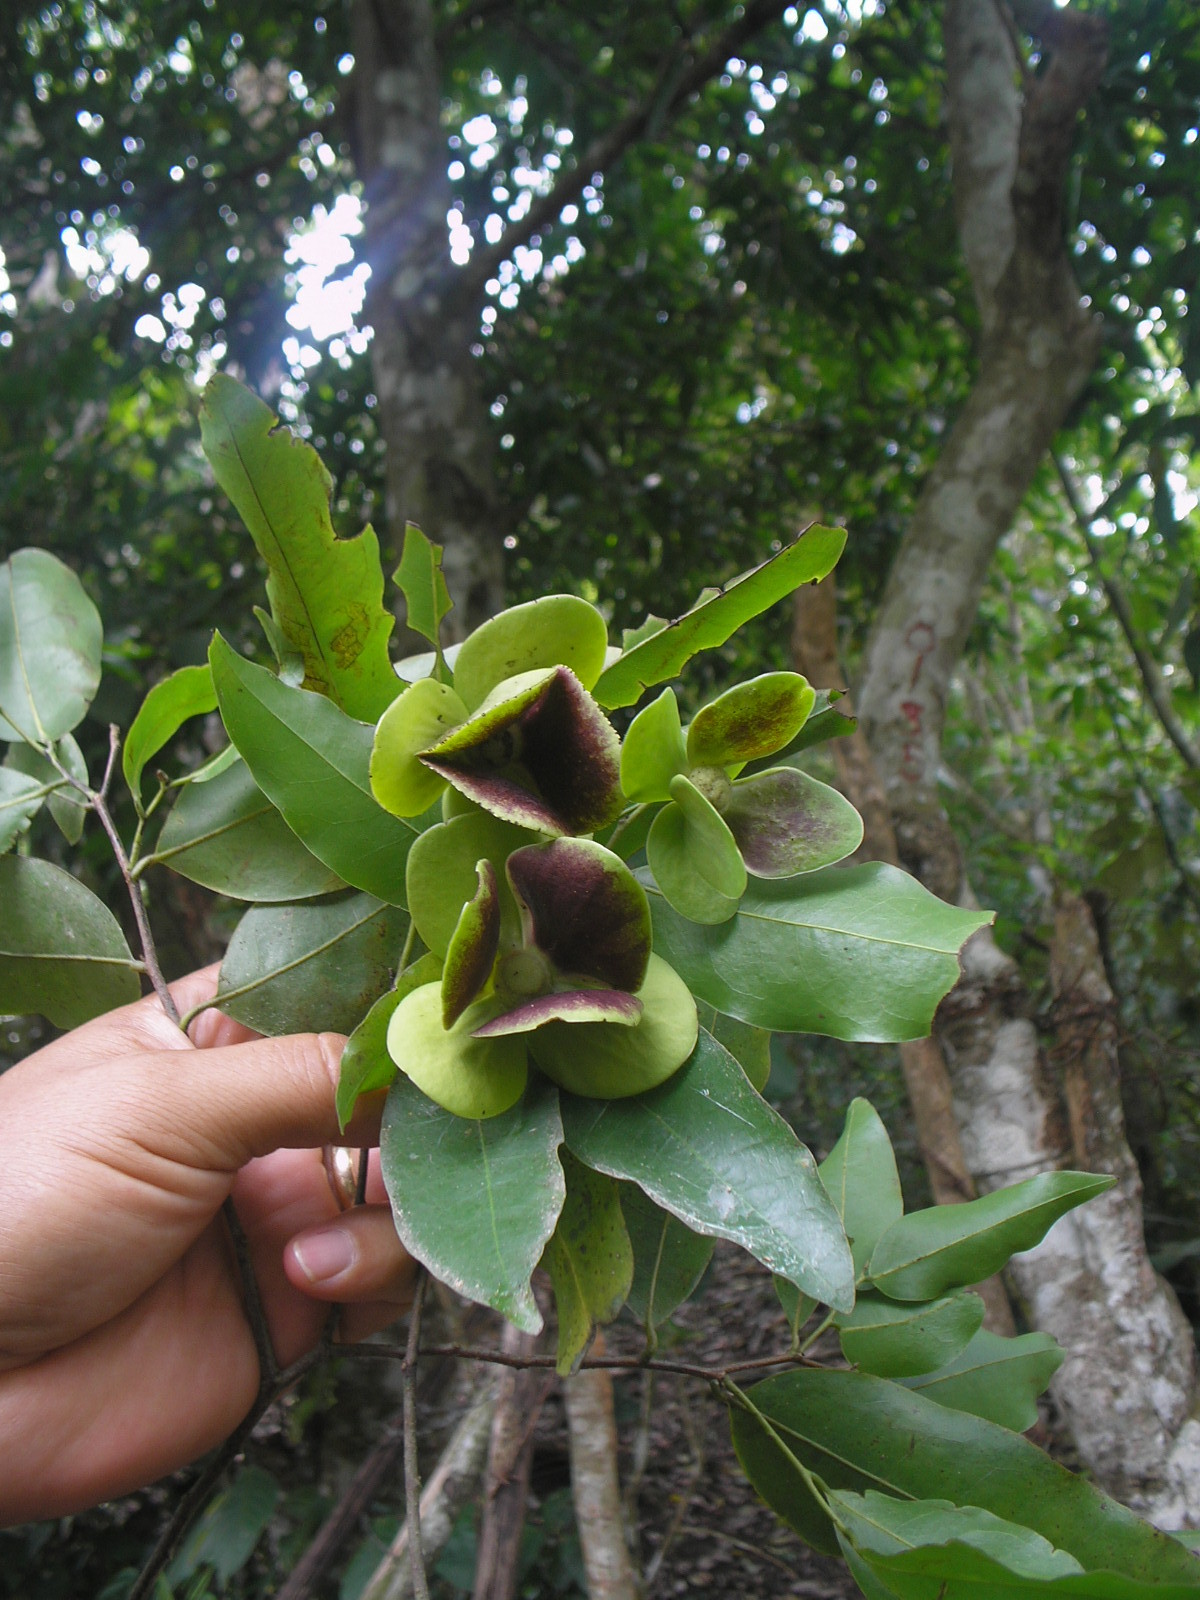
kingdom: Plantae
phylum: Tracheophyta
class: Magnoliopsida
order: Celastrales
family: Celastraceae
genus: Semialarium
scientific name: Semialarium mexicanum
